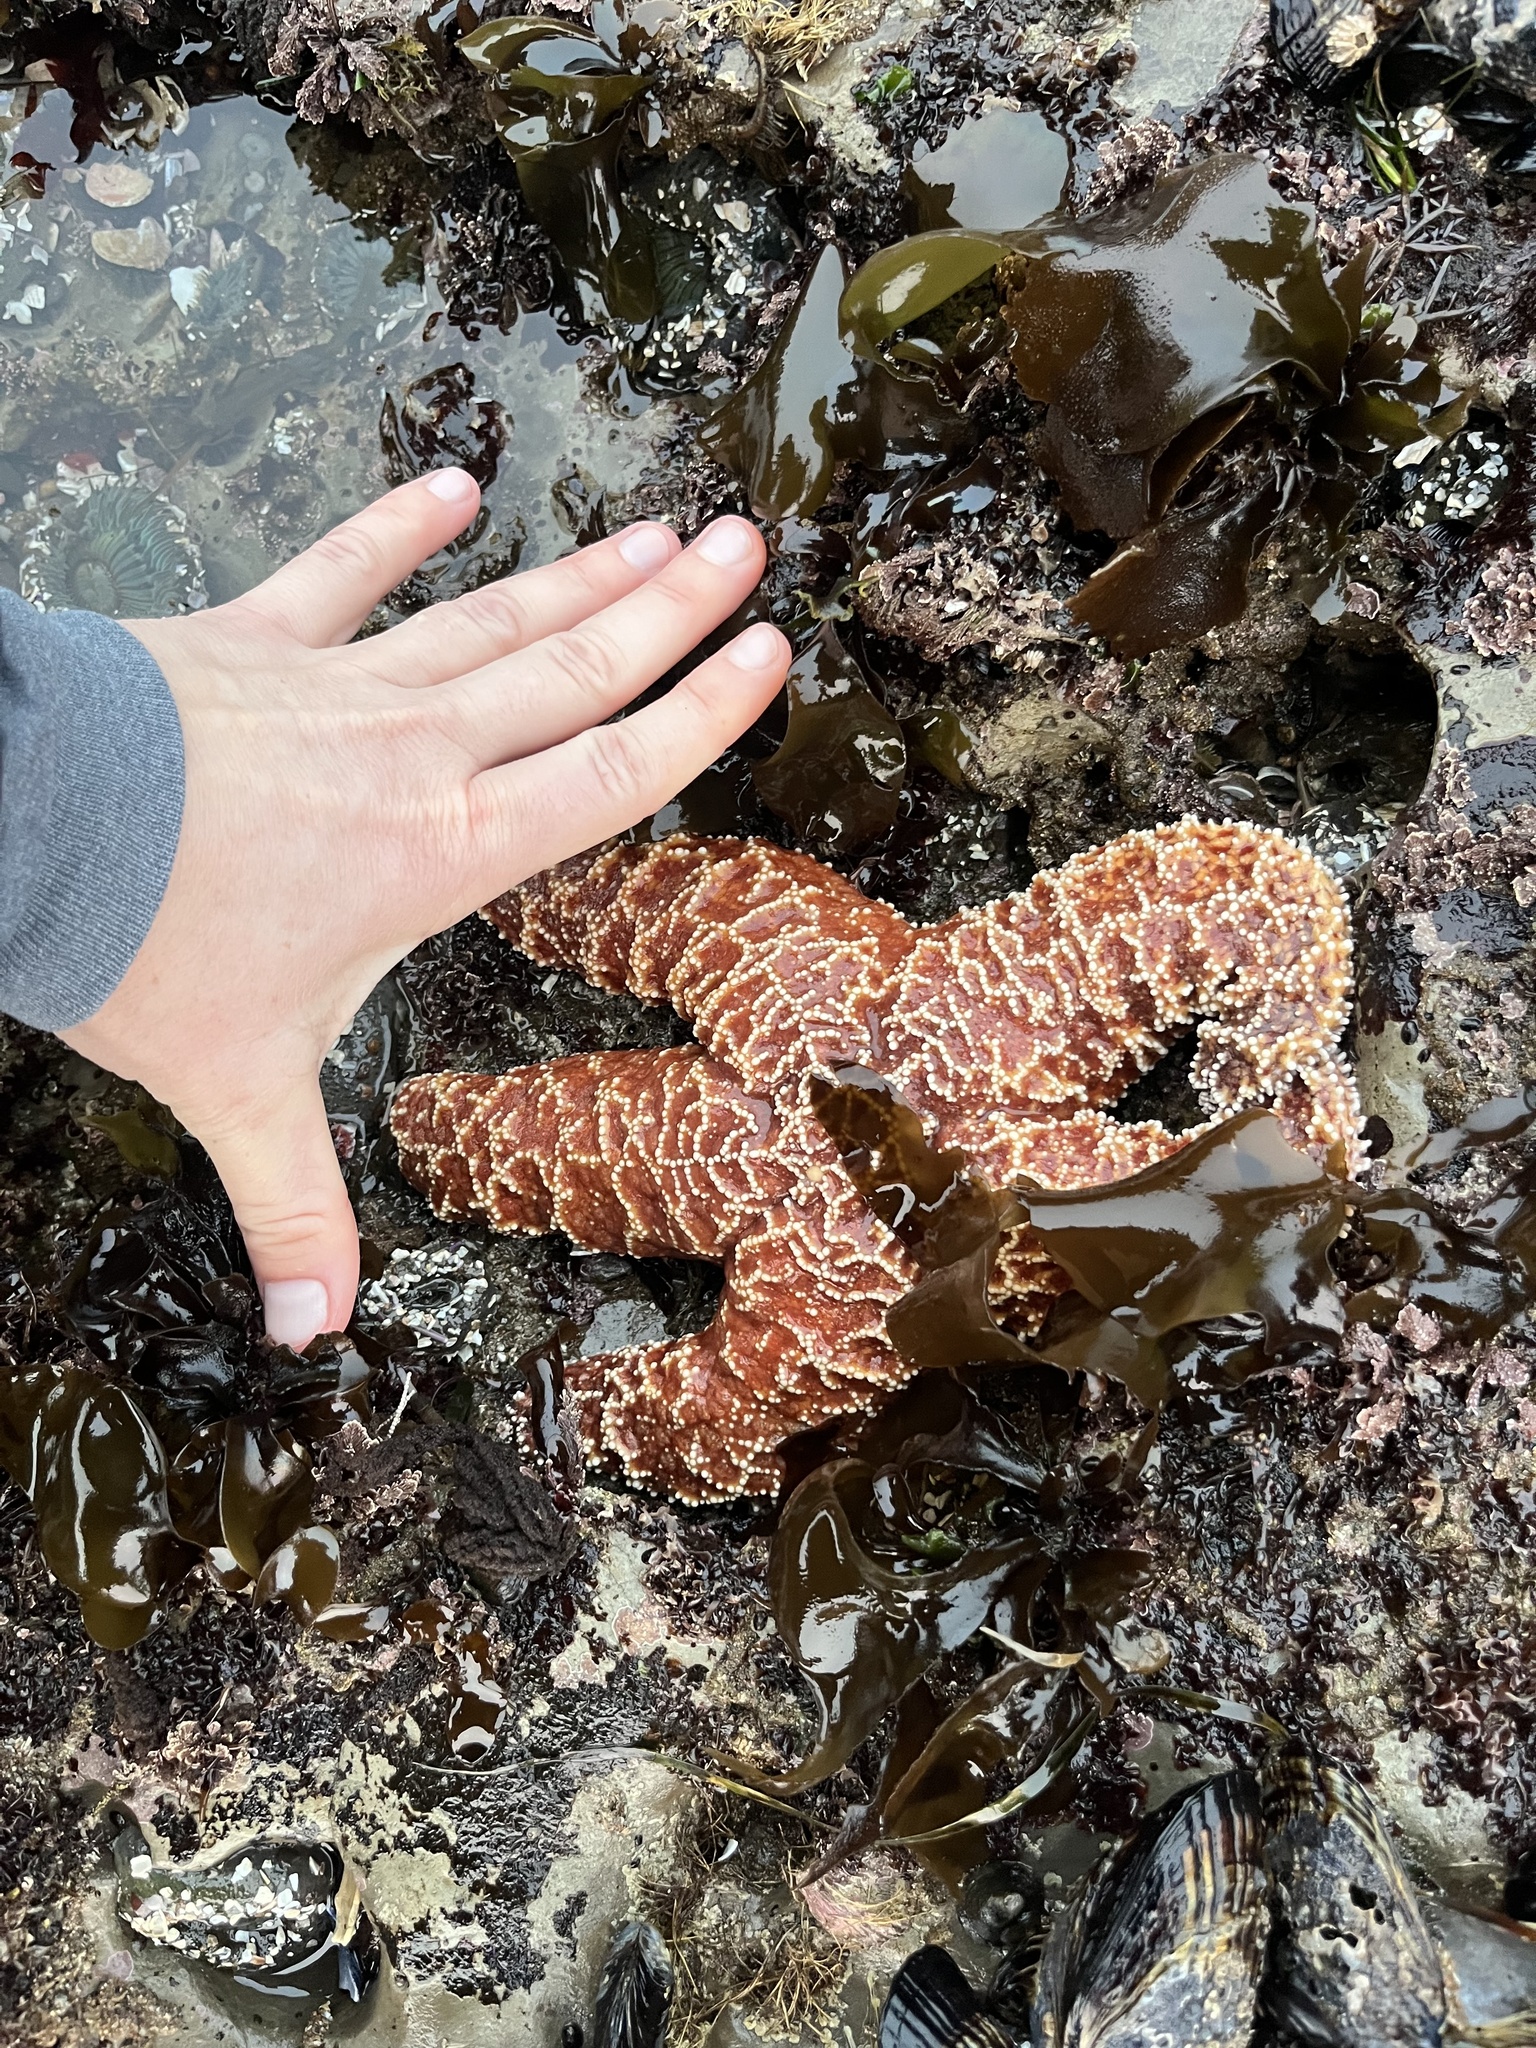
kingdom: Animalia
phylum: Echinodermata
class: Asteroidea
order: Forcipulatida
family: Asteriidae
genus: Pisaster
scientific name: Pisaster ochraceus
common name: Ochre stars
